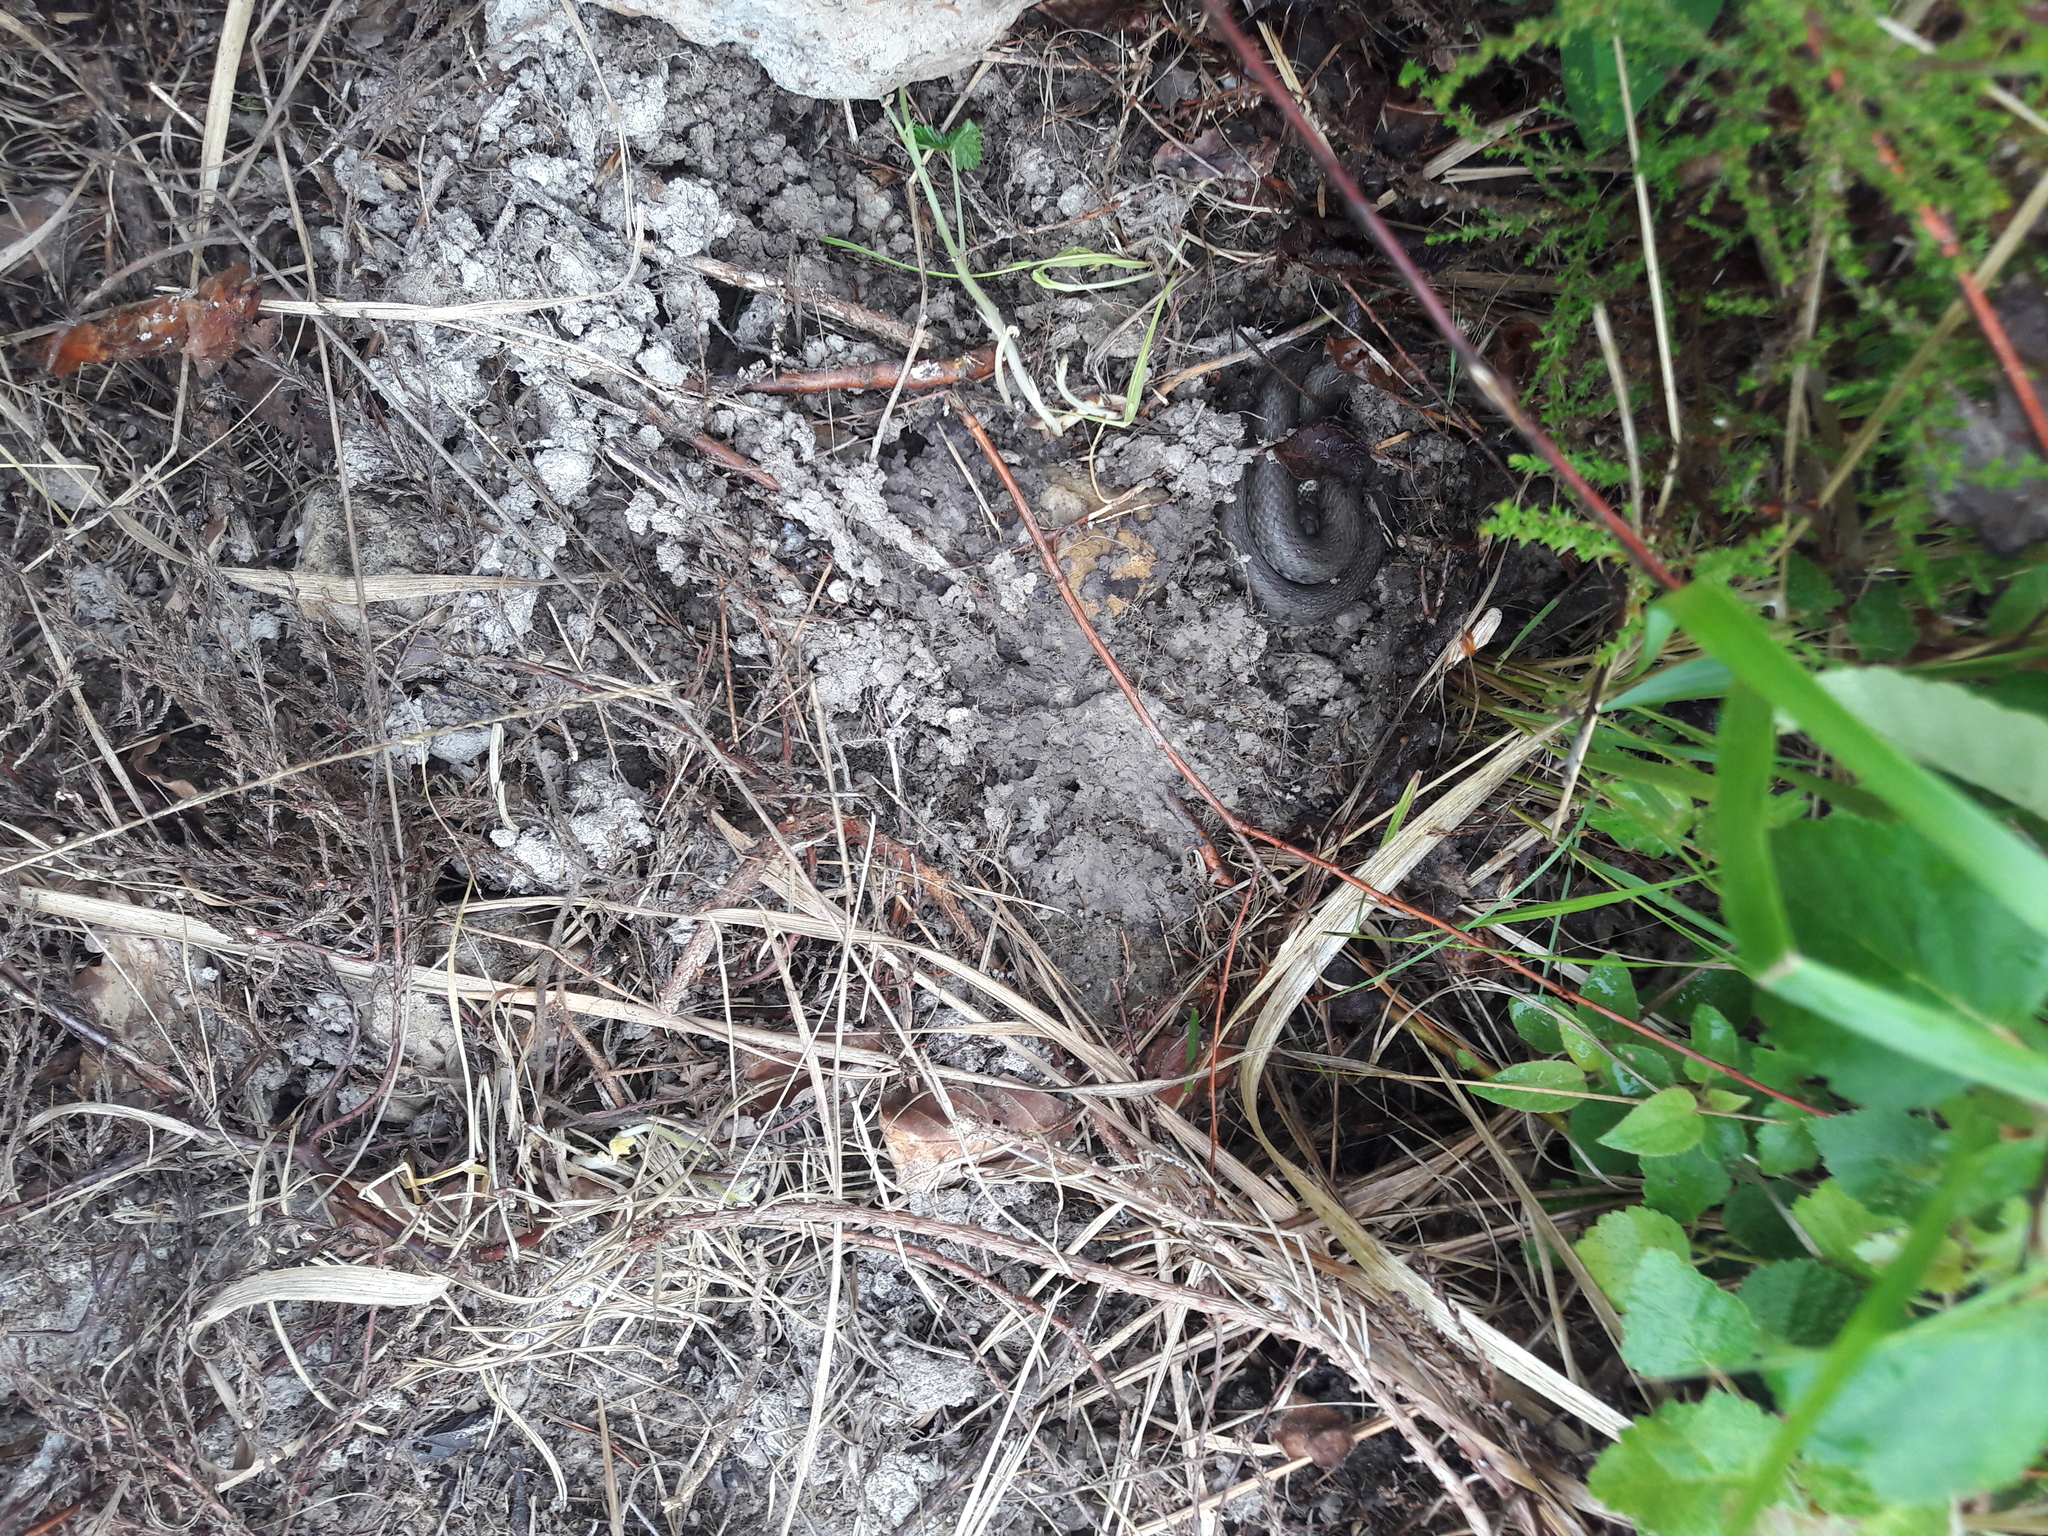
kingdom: Animalia
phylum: Chordata
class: Squamata
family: Colubridae
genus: Natrix
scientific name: Natrix helvetica
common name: Banded grass snake
